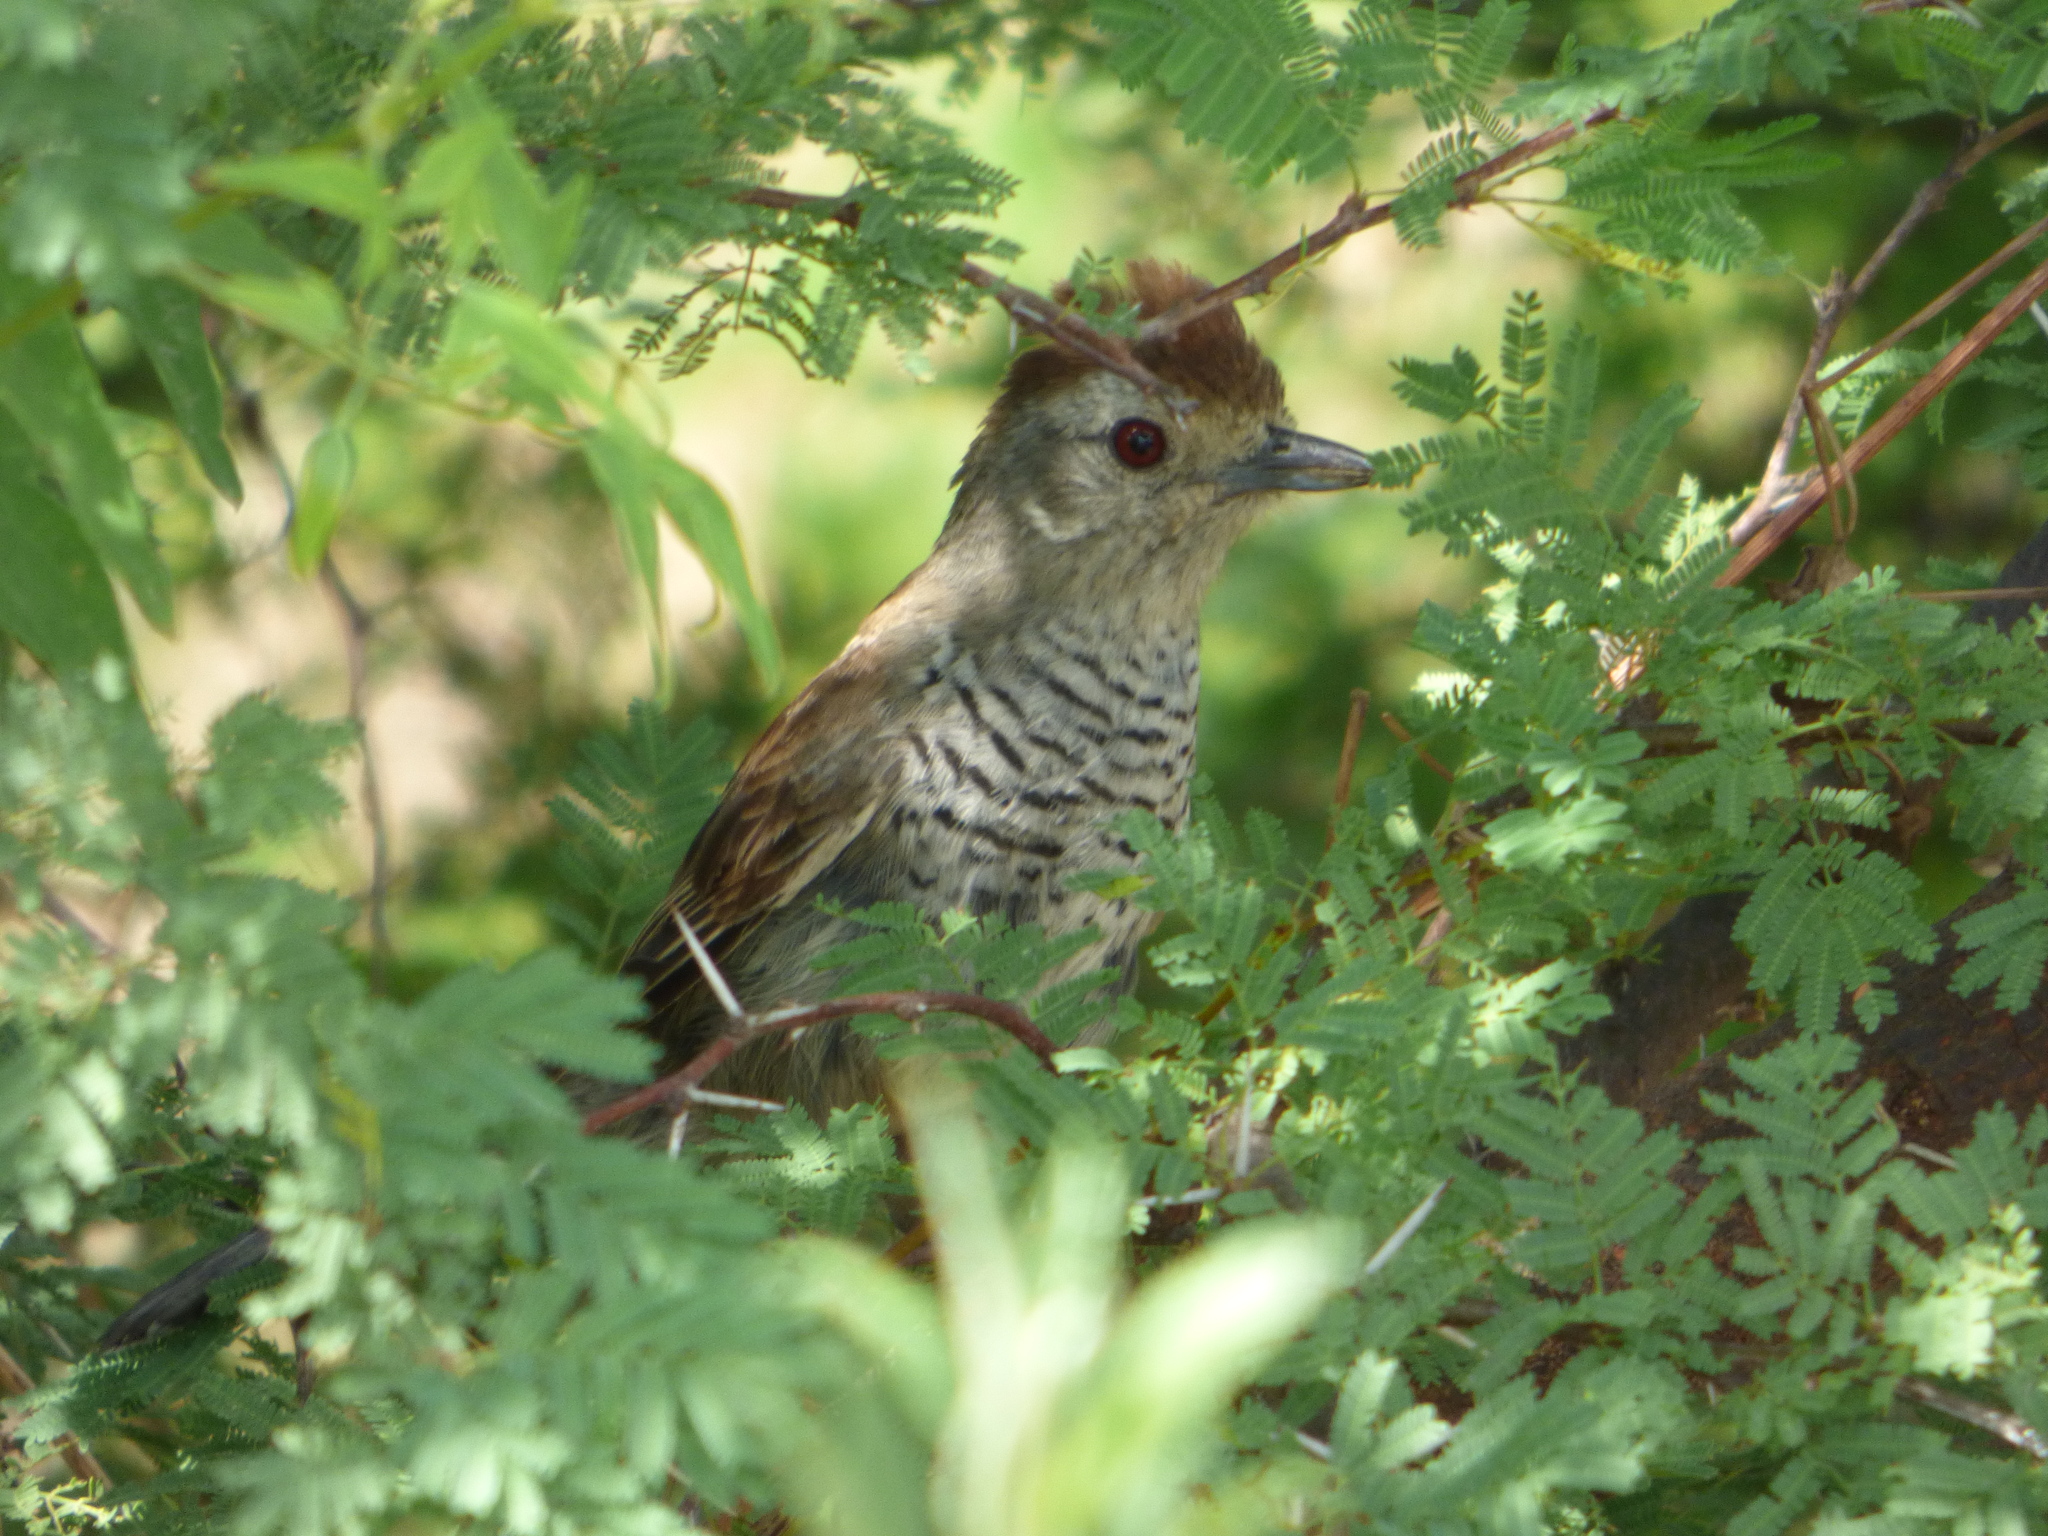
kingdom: Animalia
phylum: Chordata
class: Aves
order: Passeriformes
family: Thamnophilidae
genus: Thamnophilus
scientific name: Thamnophilus ruficapillus
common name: Rufous-capped antshrike
